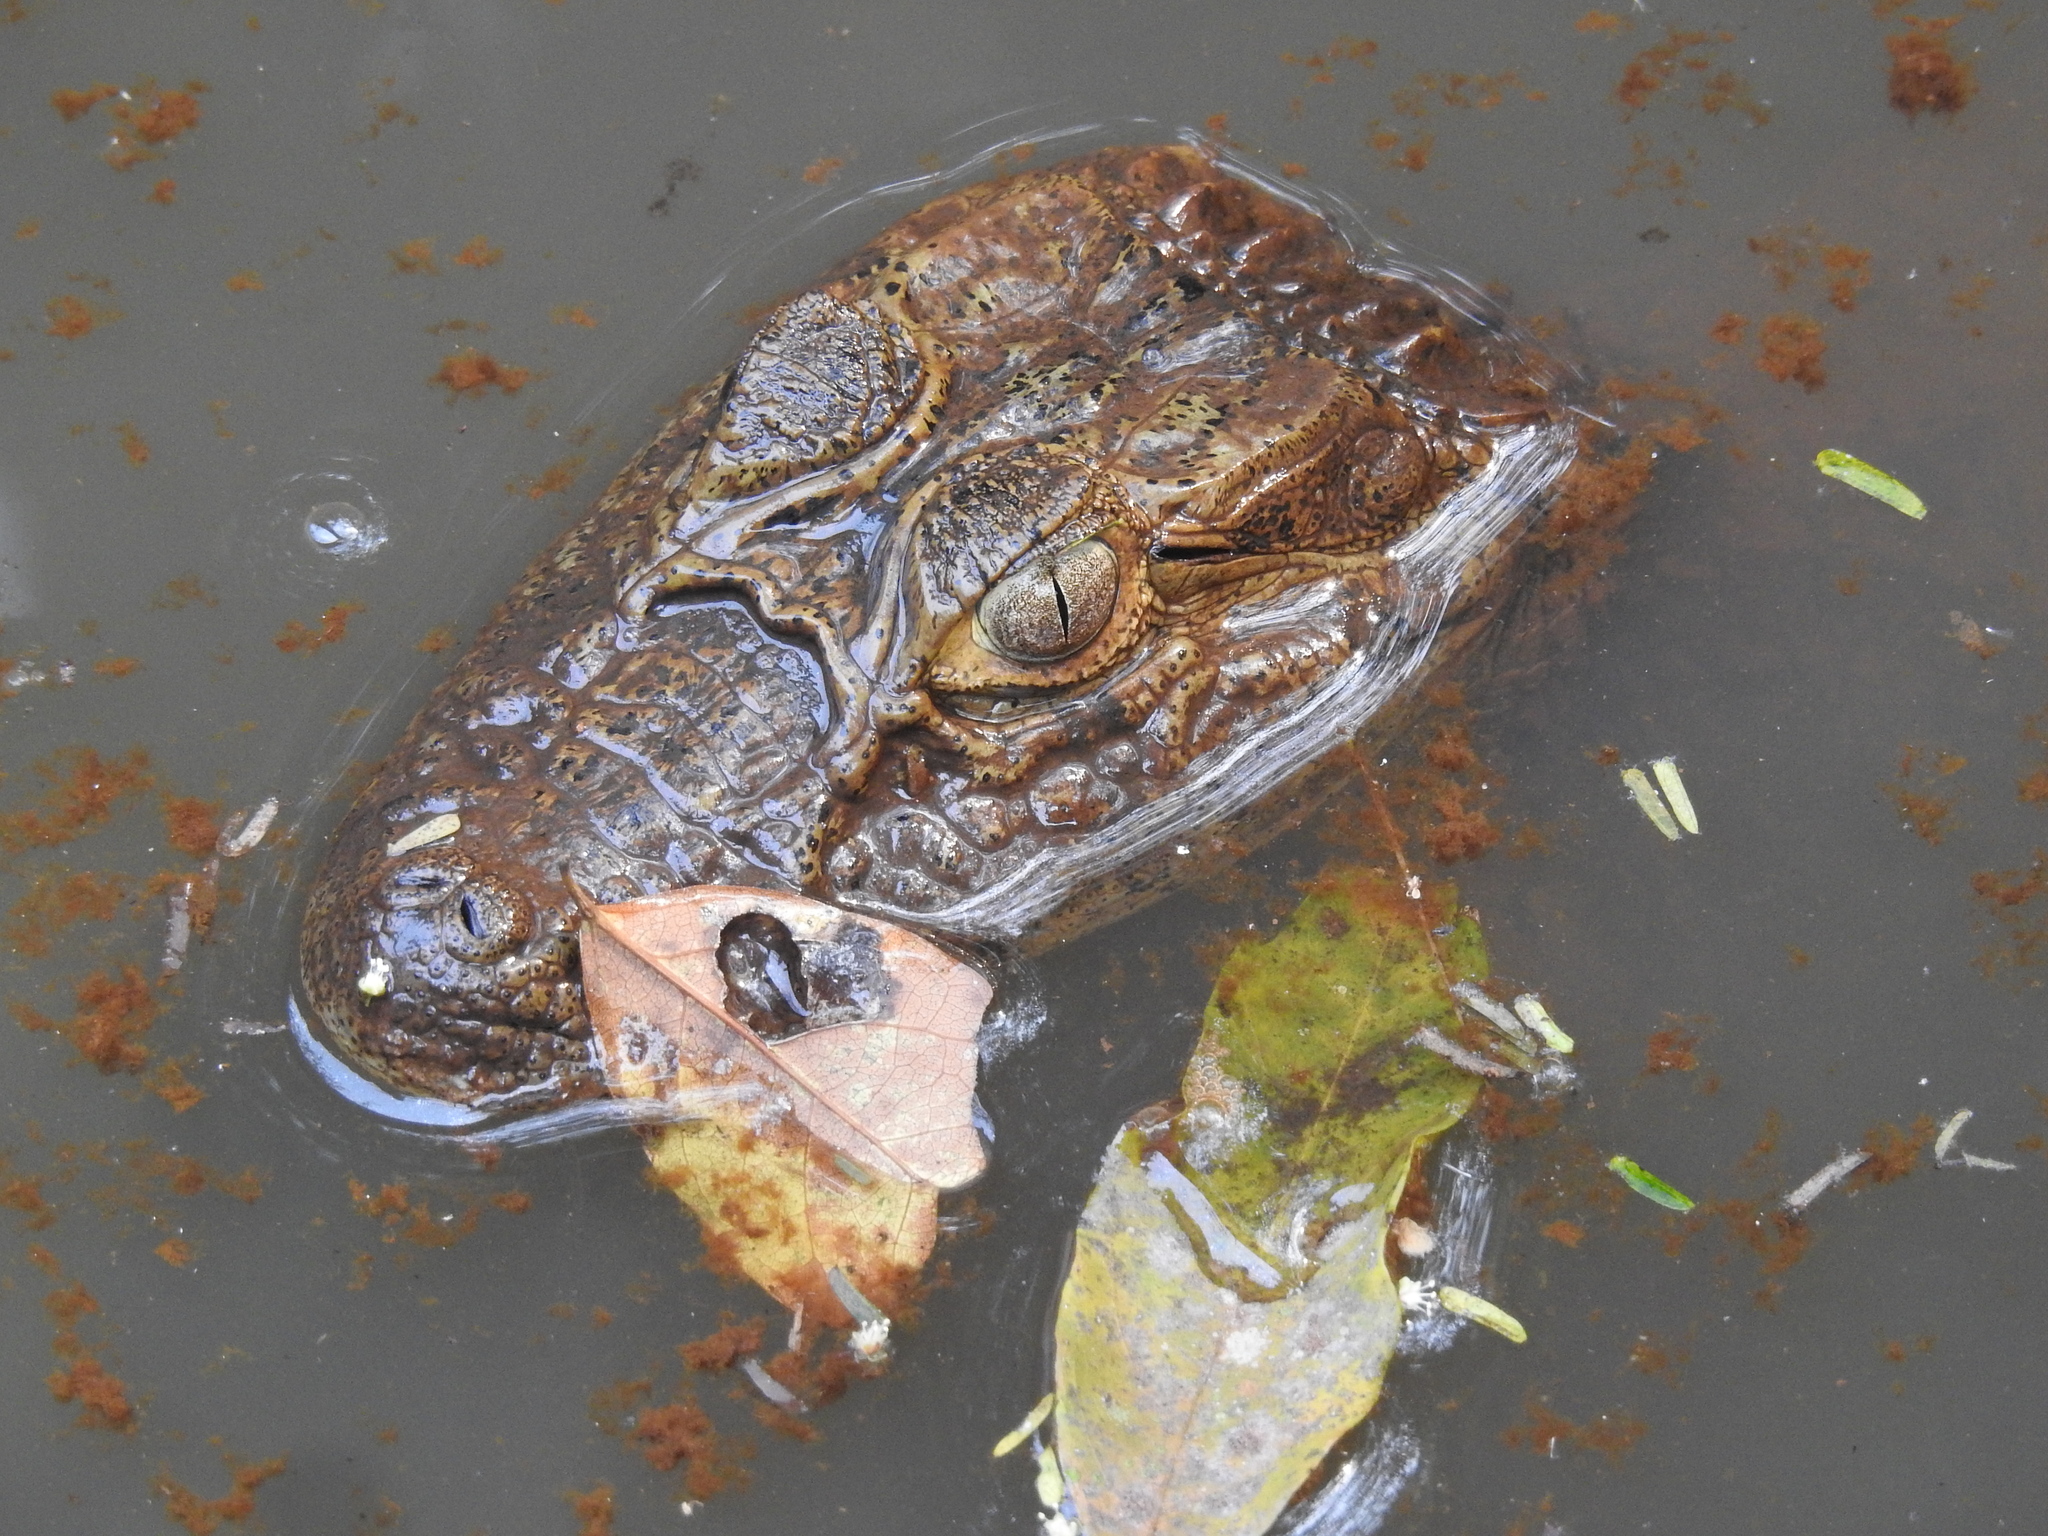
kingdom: Animalia
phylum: Chordata
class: Crocodylia
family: Alligatoridae
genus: Caiman
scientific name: Caiman latirostris
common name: Broad-snouted caiman
